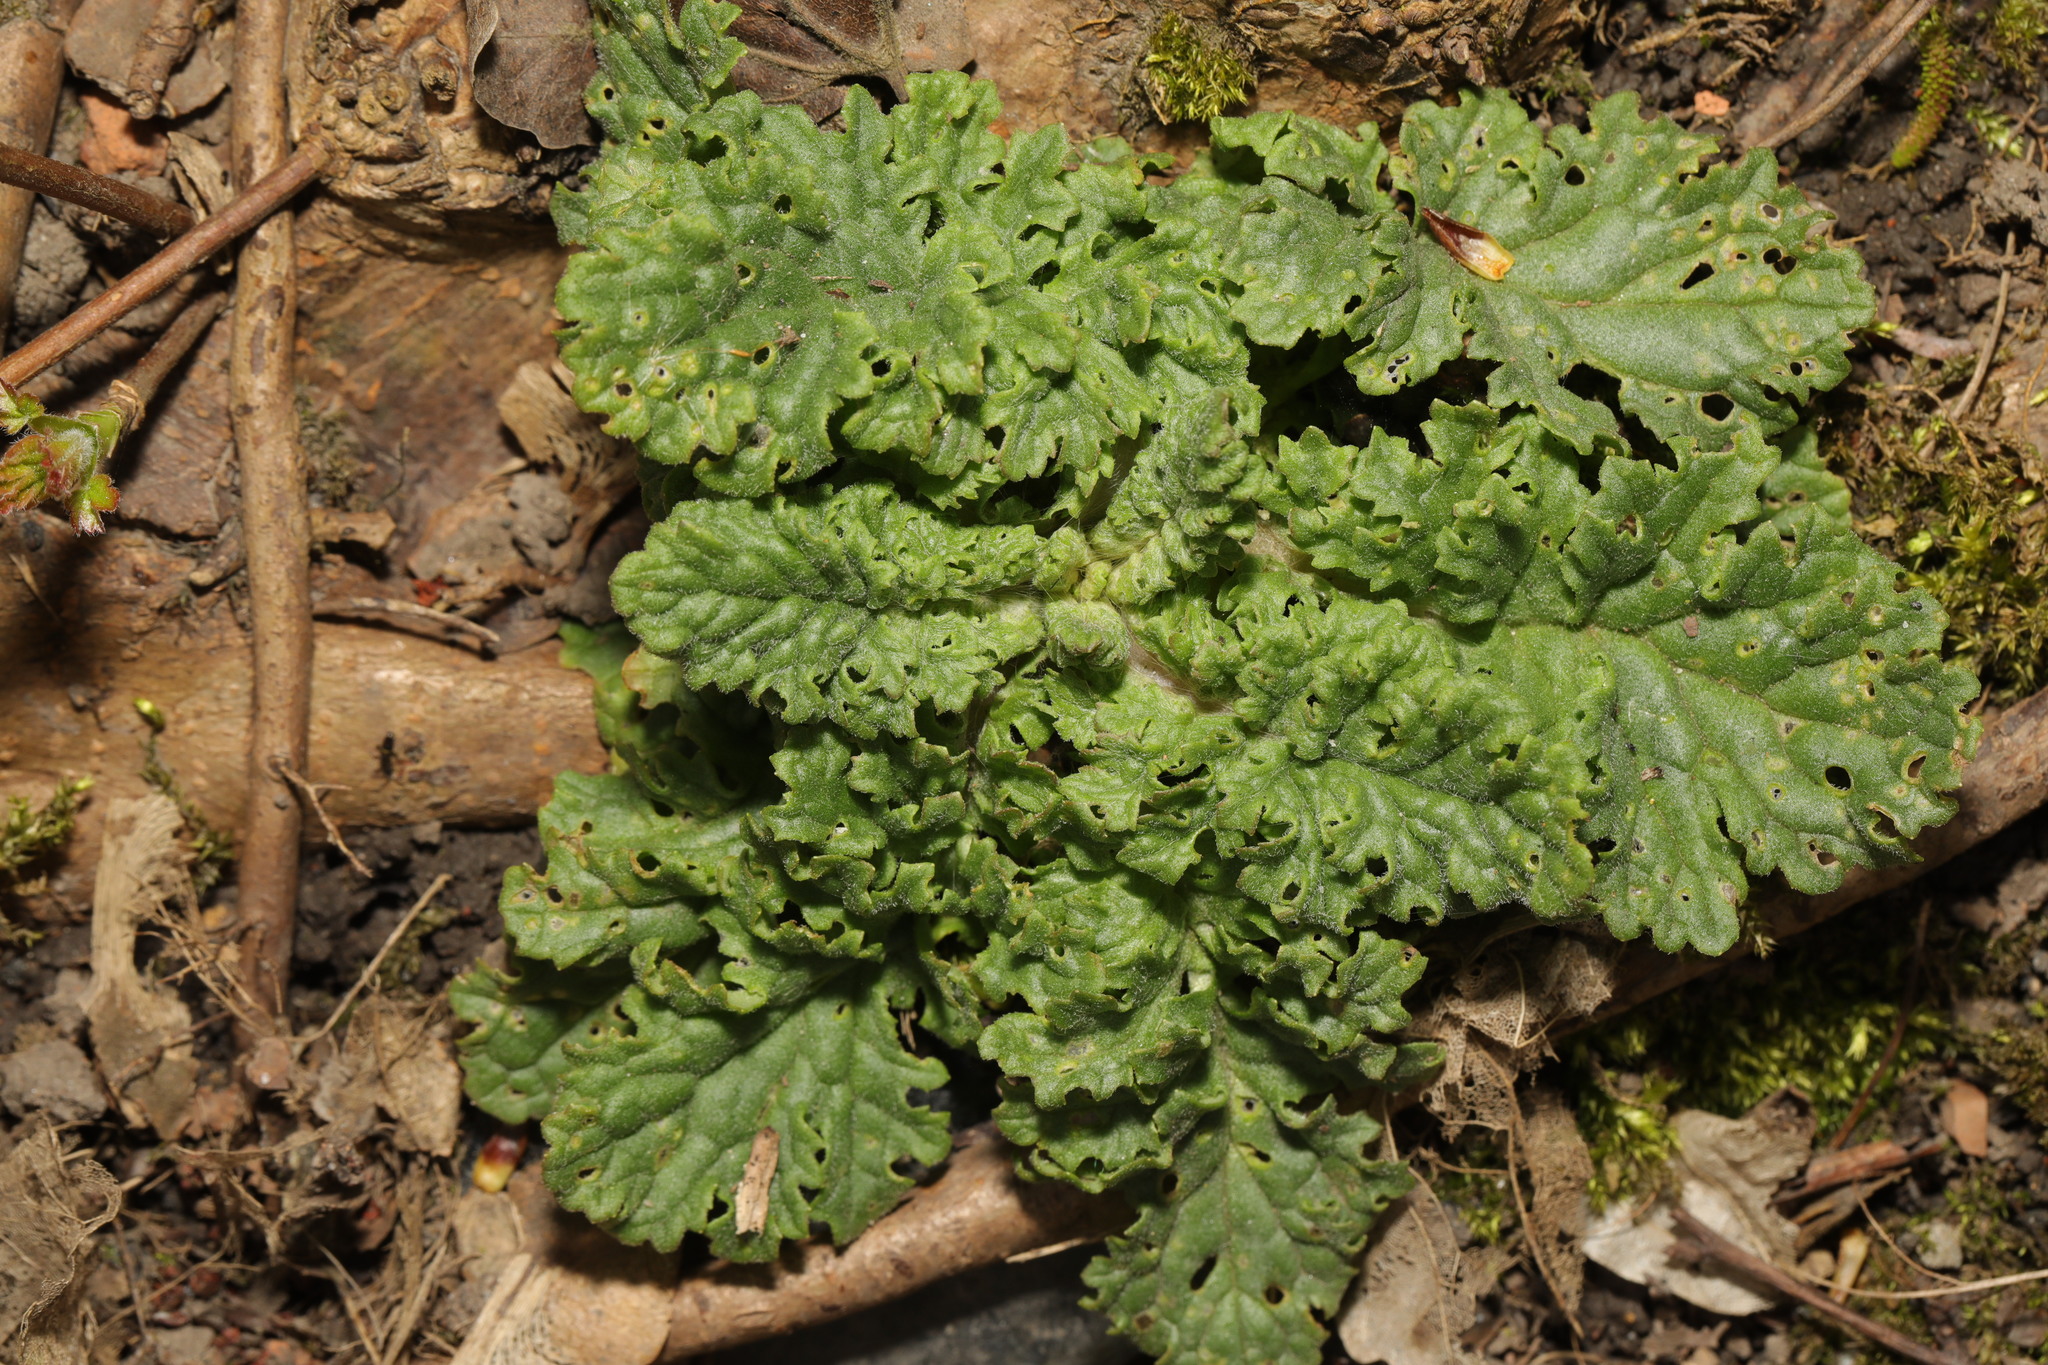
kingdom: Plantae
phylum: Tracheophyta
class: Magnoliopsida
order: Asterales
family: Asteraceae
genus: Jacobaea
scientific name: Jacobaea vulgaris
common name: Stinking willie
